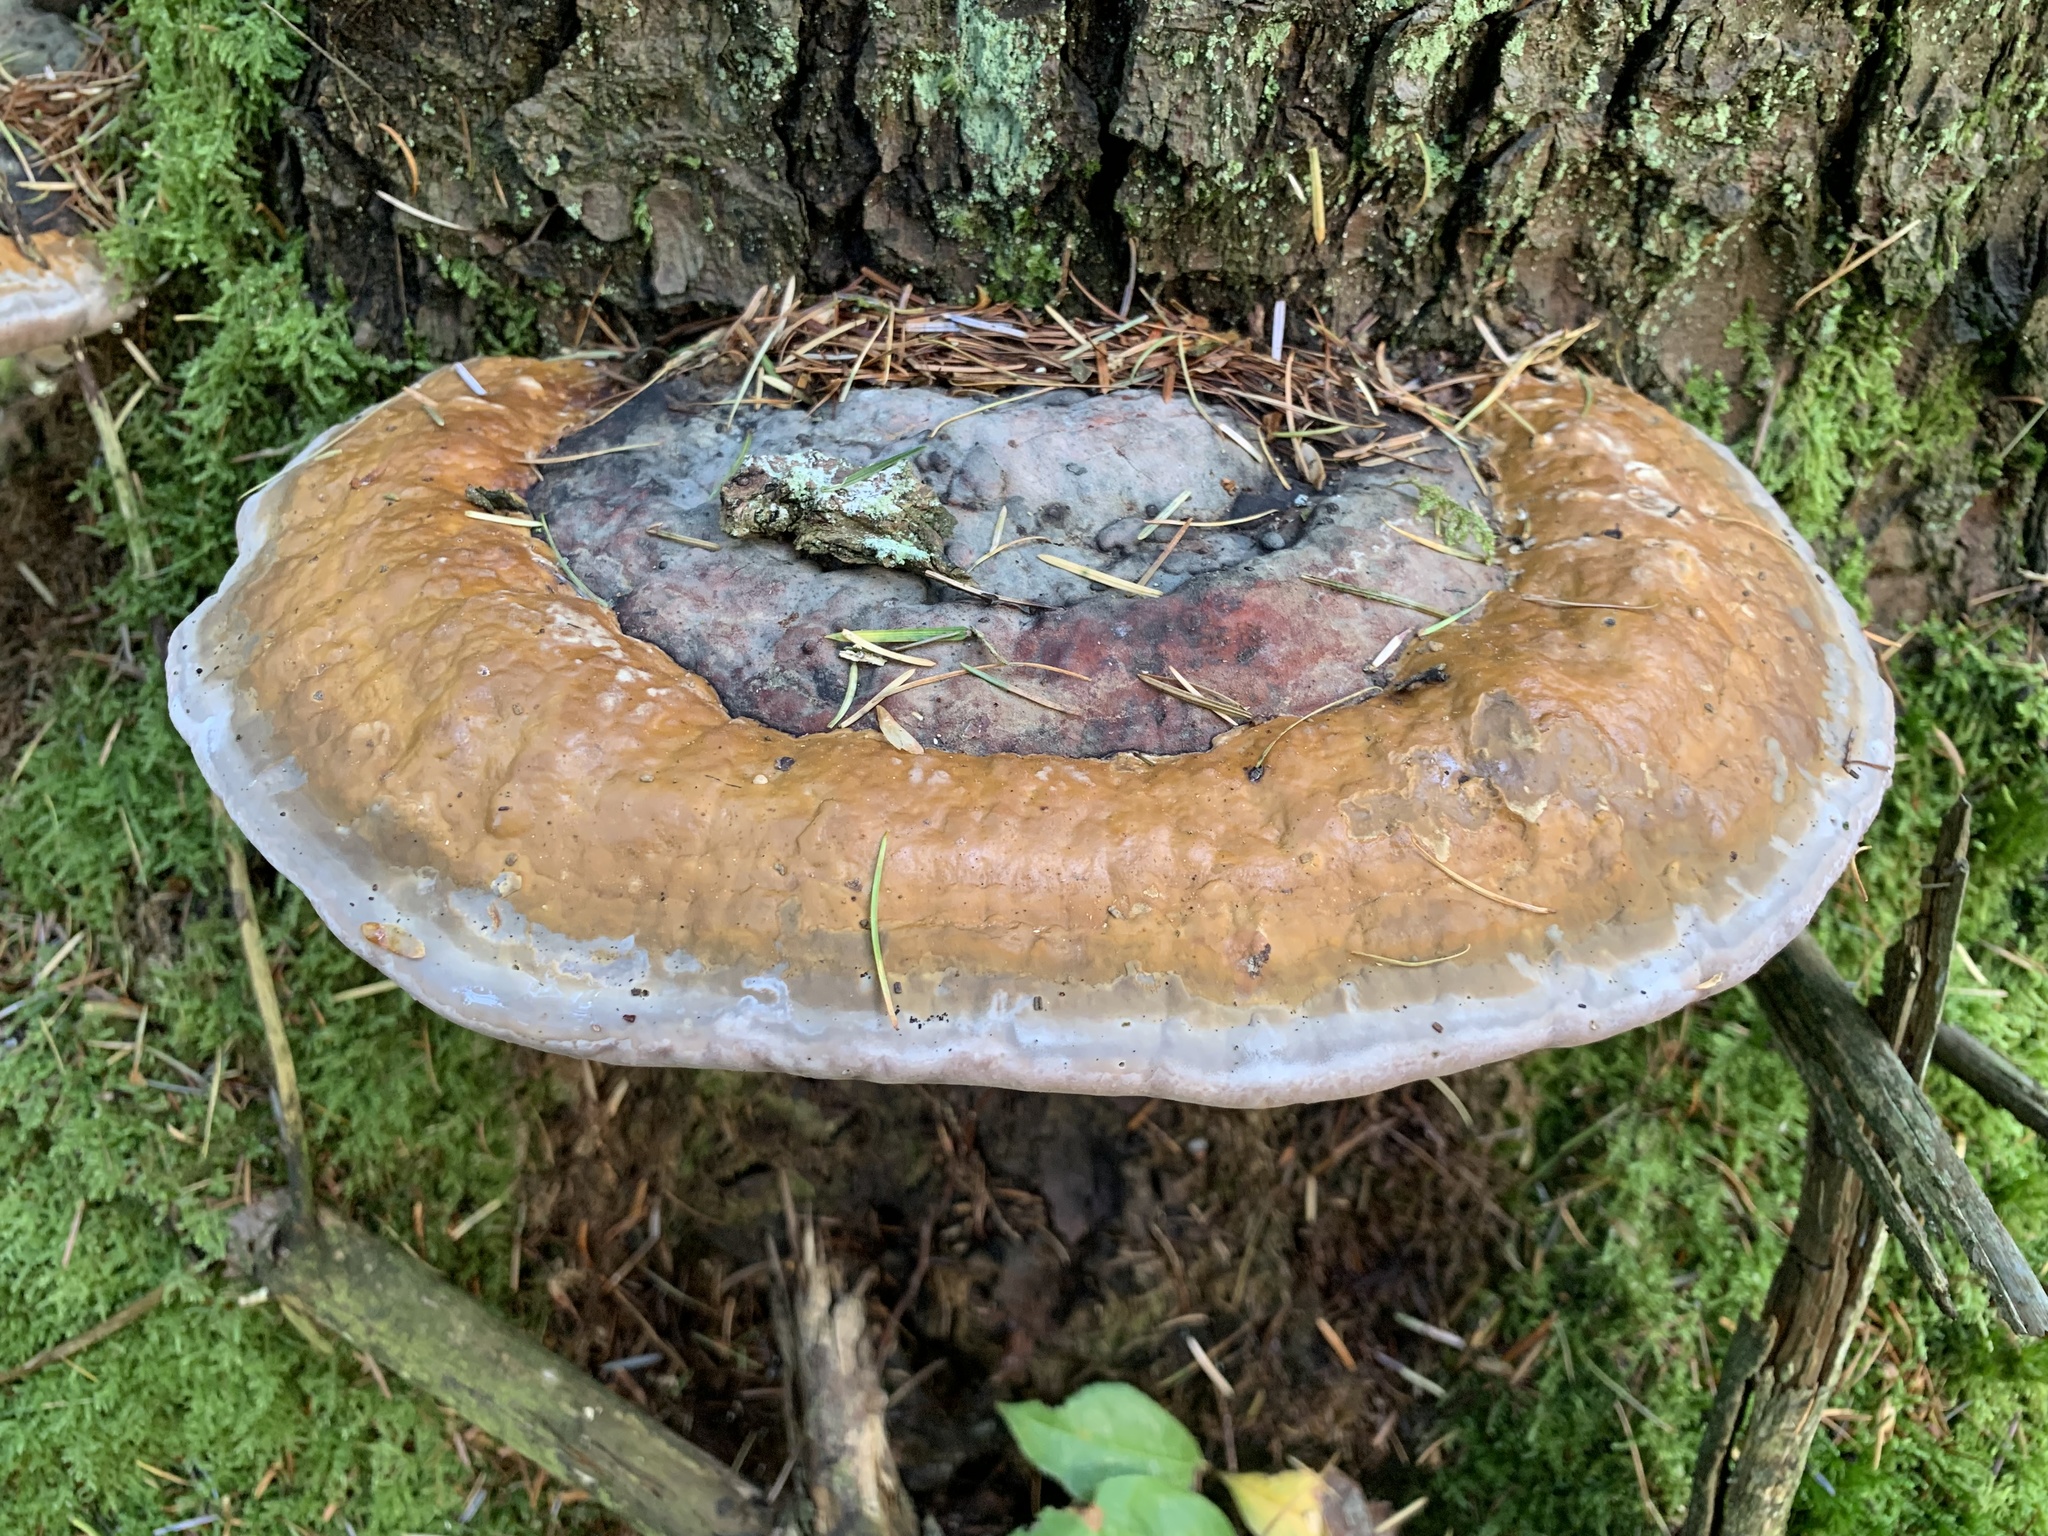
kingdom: Fungi
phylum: Basidiomycota
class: Agaricomycetes
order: Polyporales
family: Fomitopsidaceae
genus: Fomitopsis
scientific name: Fomitopsis pinicola
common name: Red-belted bracket
